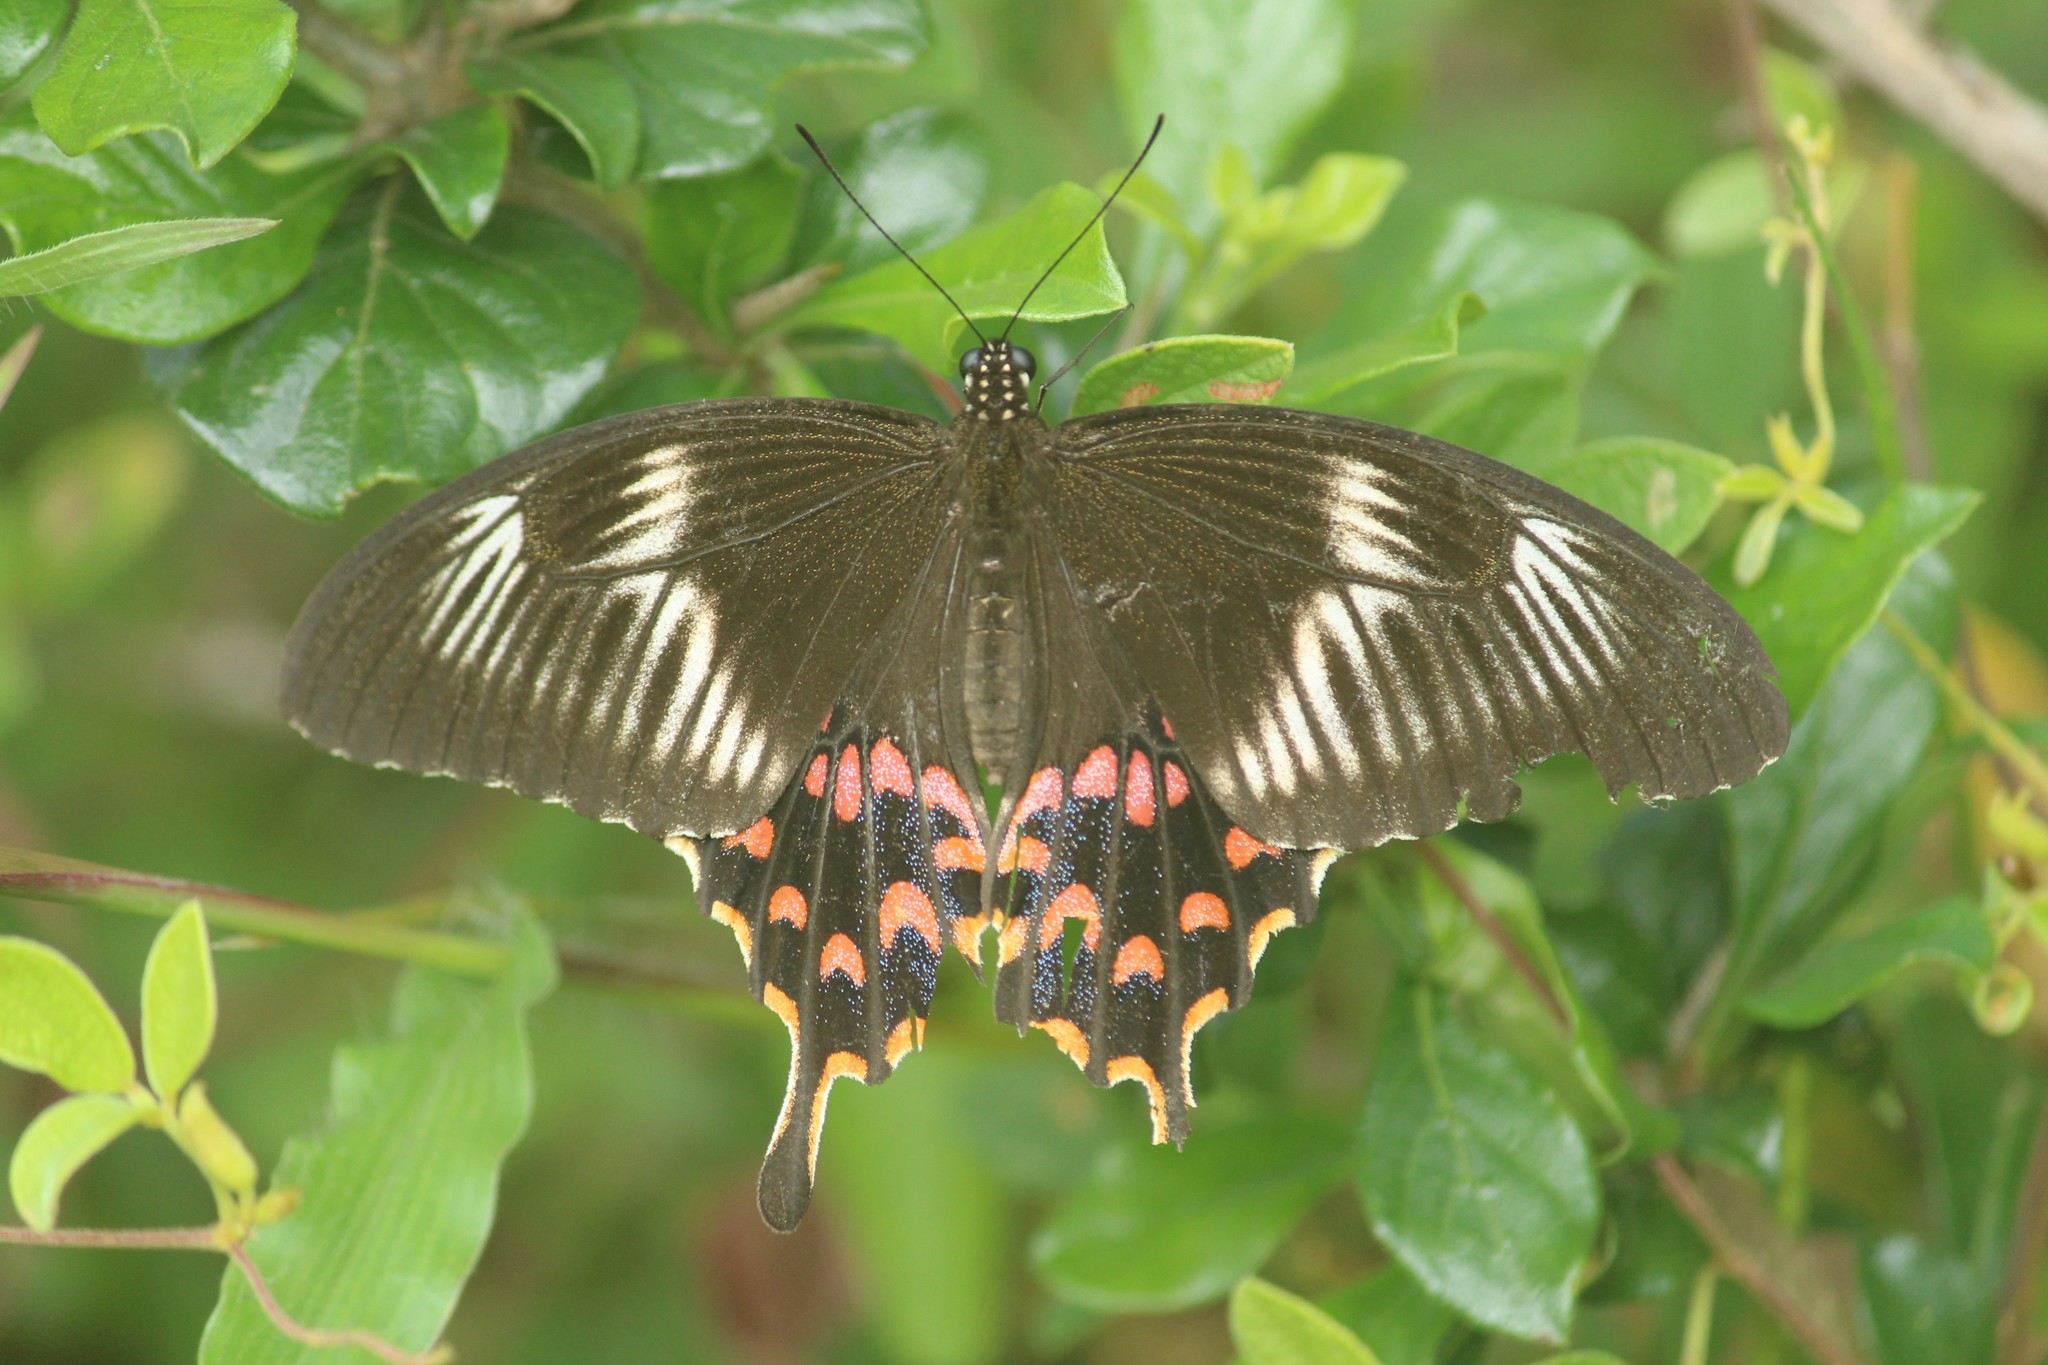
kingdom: Animalia
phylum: Arthropoda
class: Insecta
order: Lepidoptera
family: Papilionidae
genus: Papilio
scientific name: Papilio polytes
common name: Common mormon
